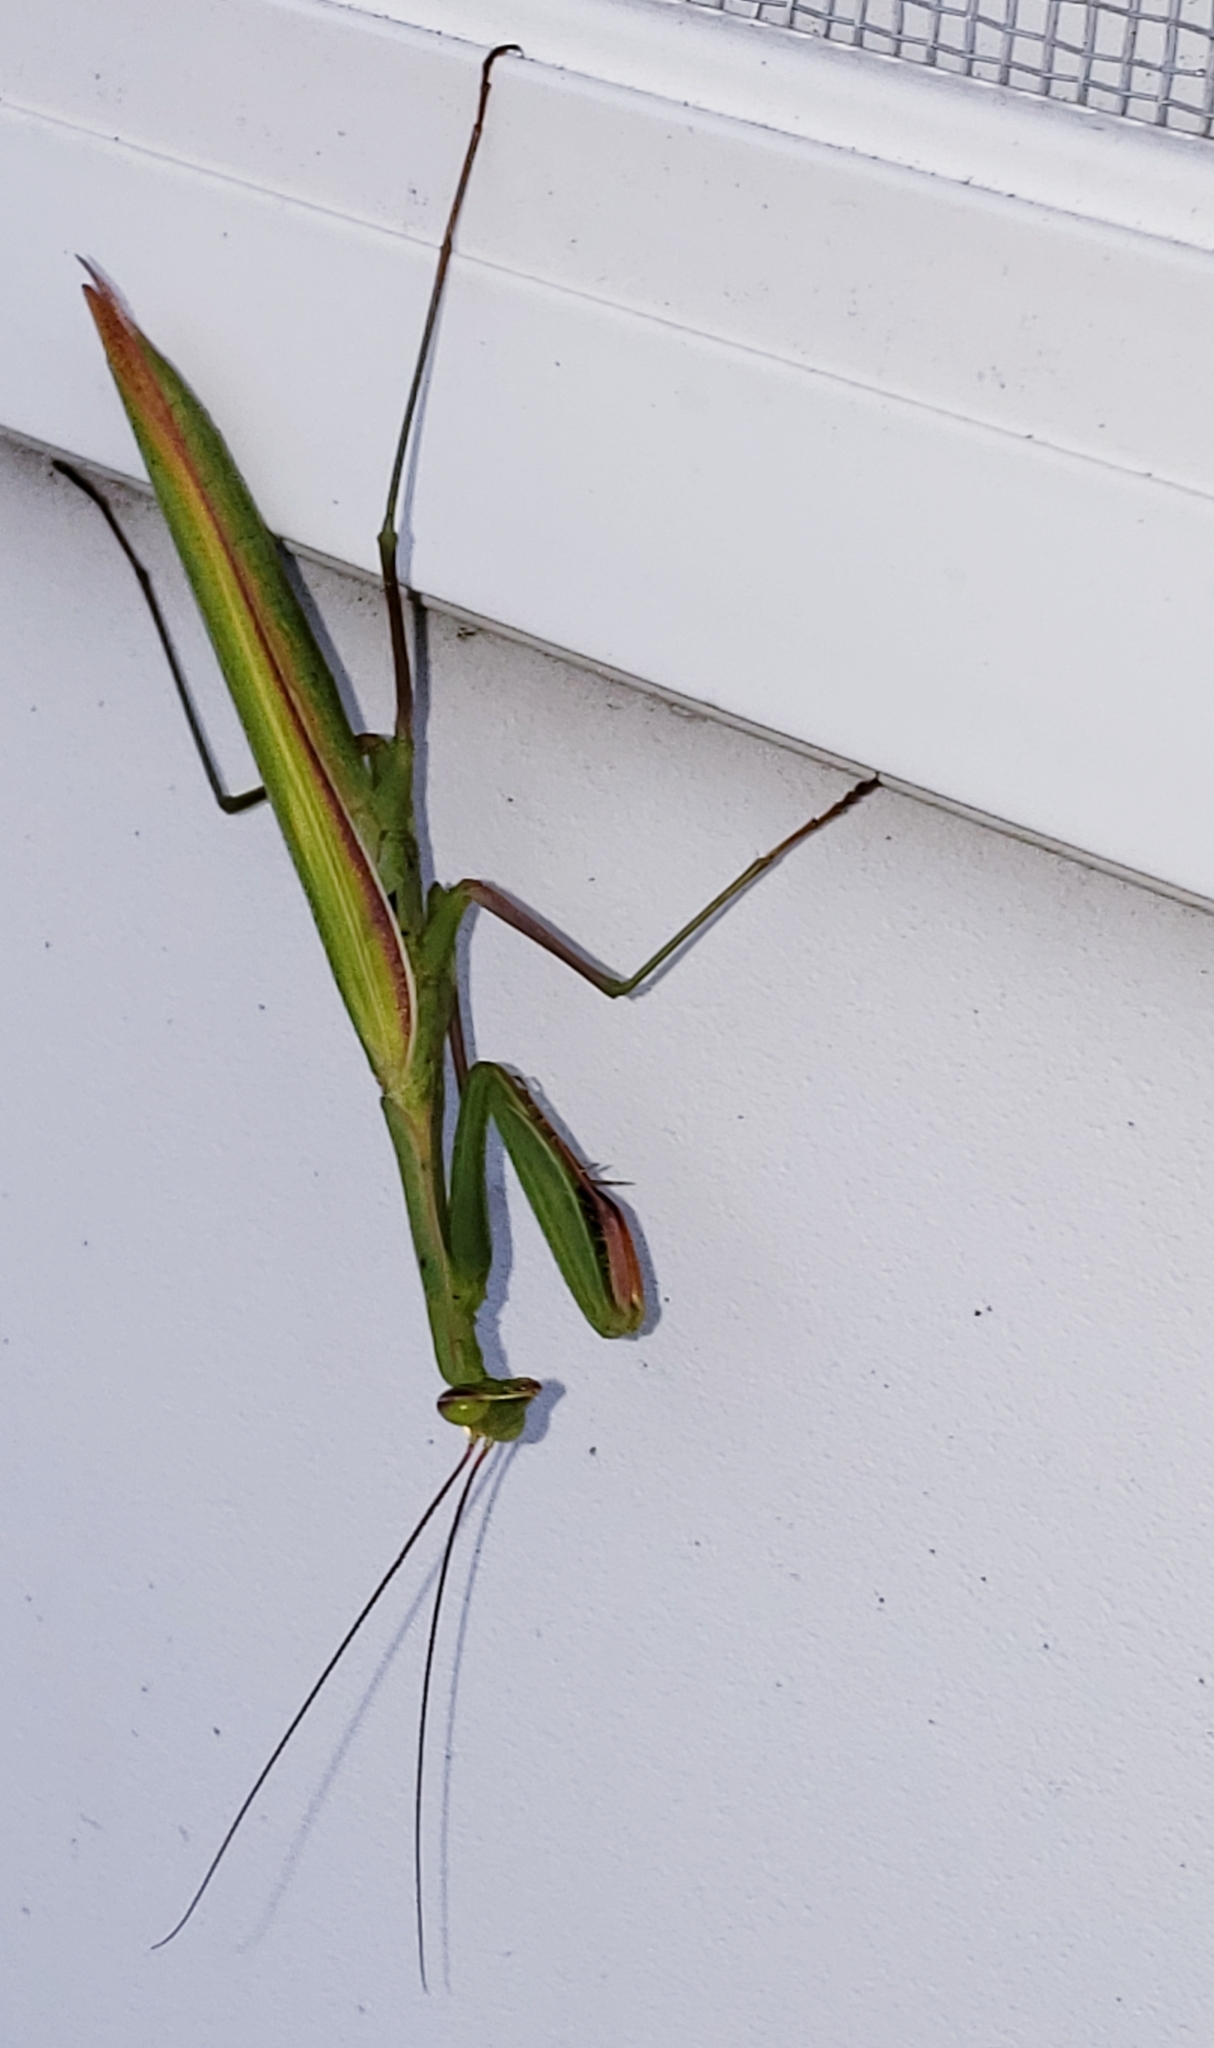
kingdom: Animalia
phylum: Arthropoda
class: Insecta
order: Mantodea
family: Mantidae
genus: Mantis
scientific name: Mantis religiosa
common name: Praying mantis
